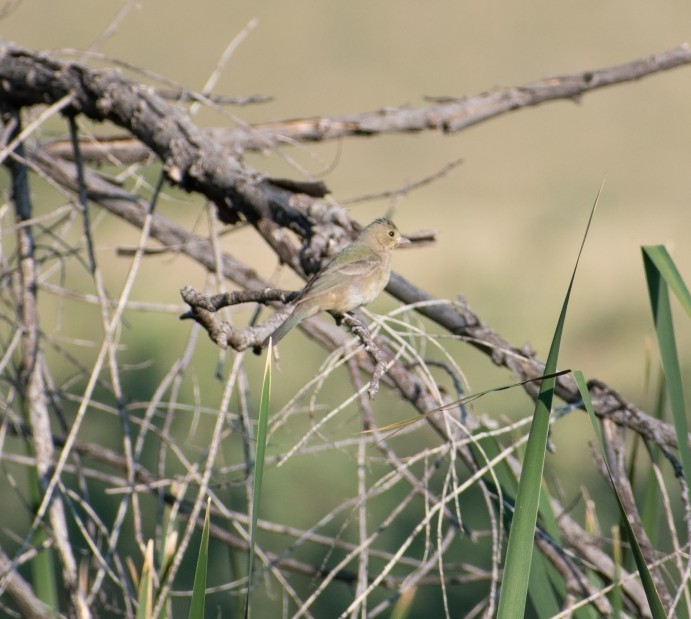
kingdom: Animalia
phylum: Chordata
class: Aves
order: Passeriformes
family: Cardinalidae
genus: Passerina
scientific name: Passerina ciris
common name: Painted bunting
